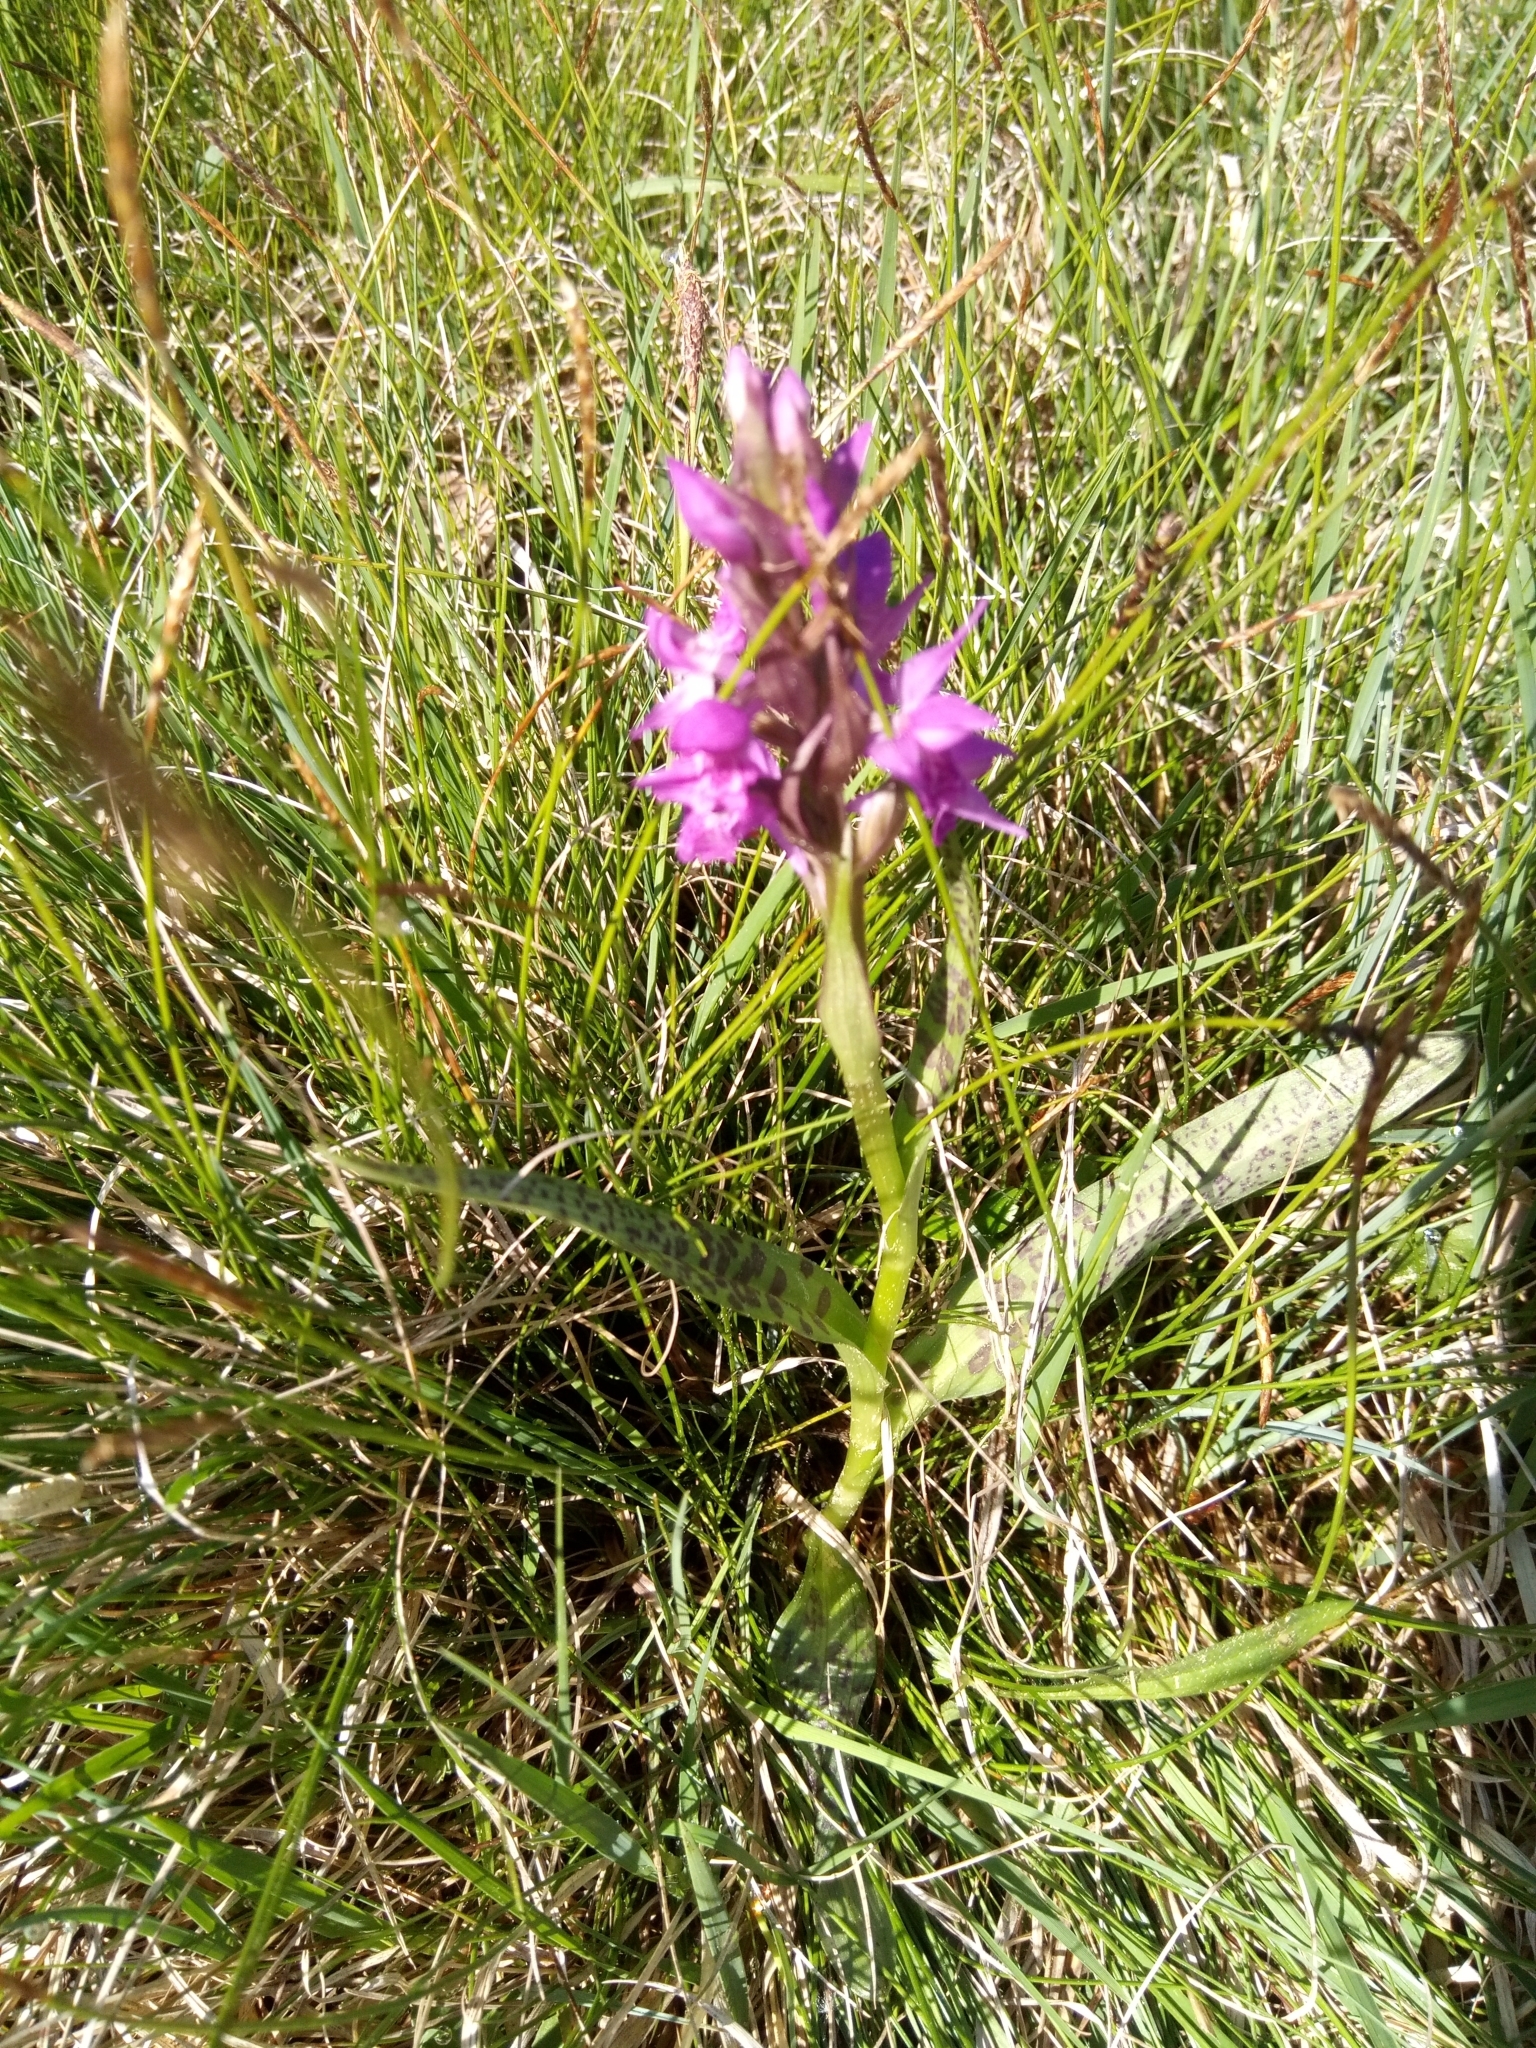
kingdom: Plantae
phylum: Tracheophyta
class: Liliopsida
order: Asparagales
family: Orchidaceae
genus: Dactylorhiza
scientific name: Dactylorhiza majalis
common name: Marsh orchid
